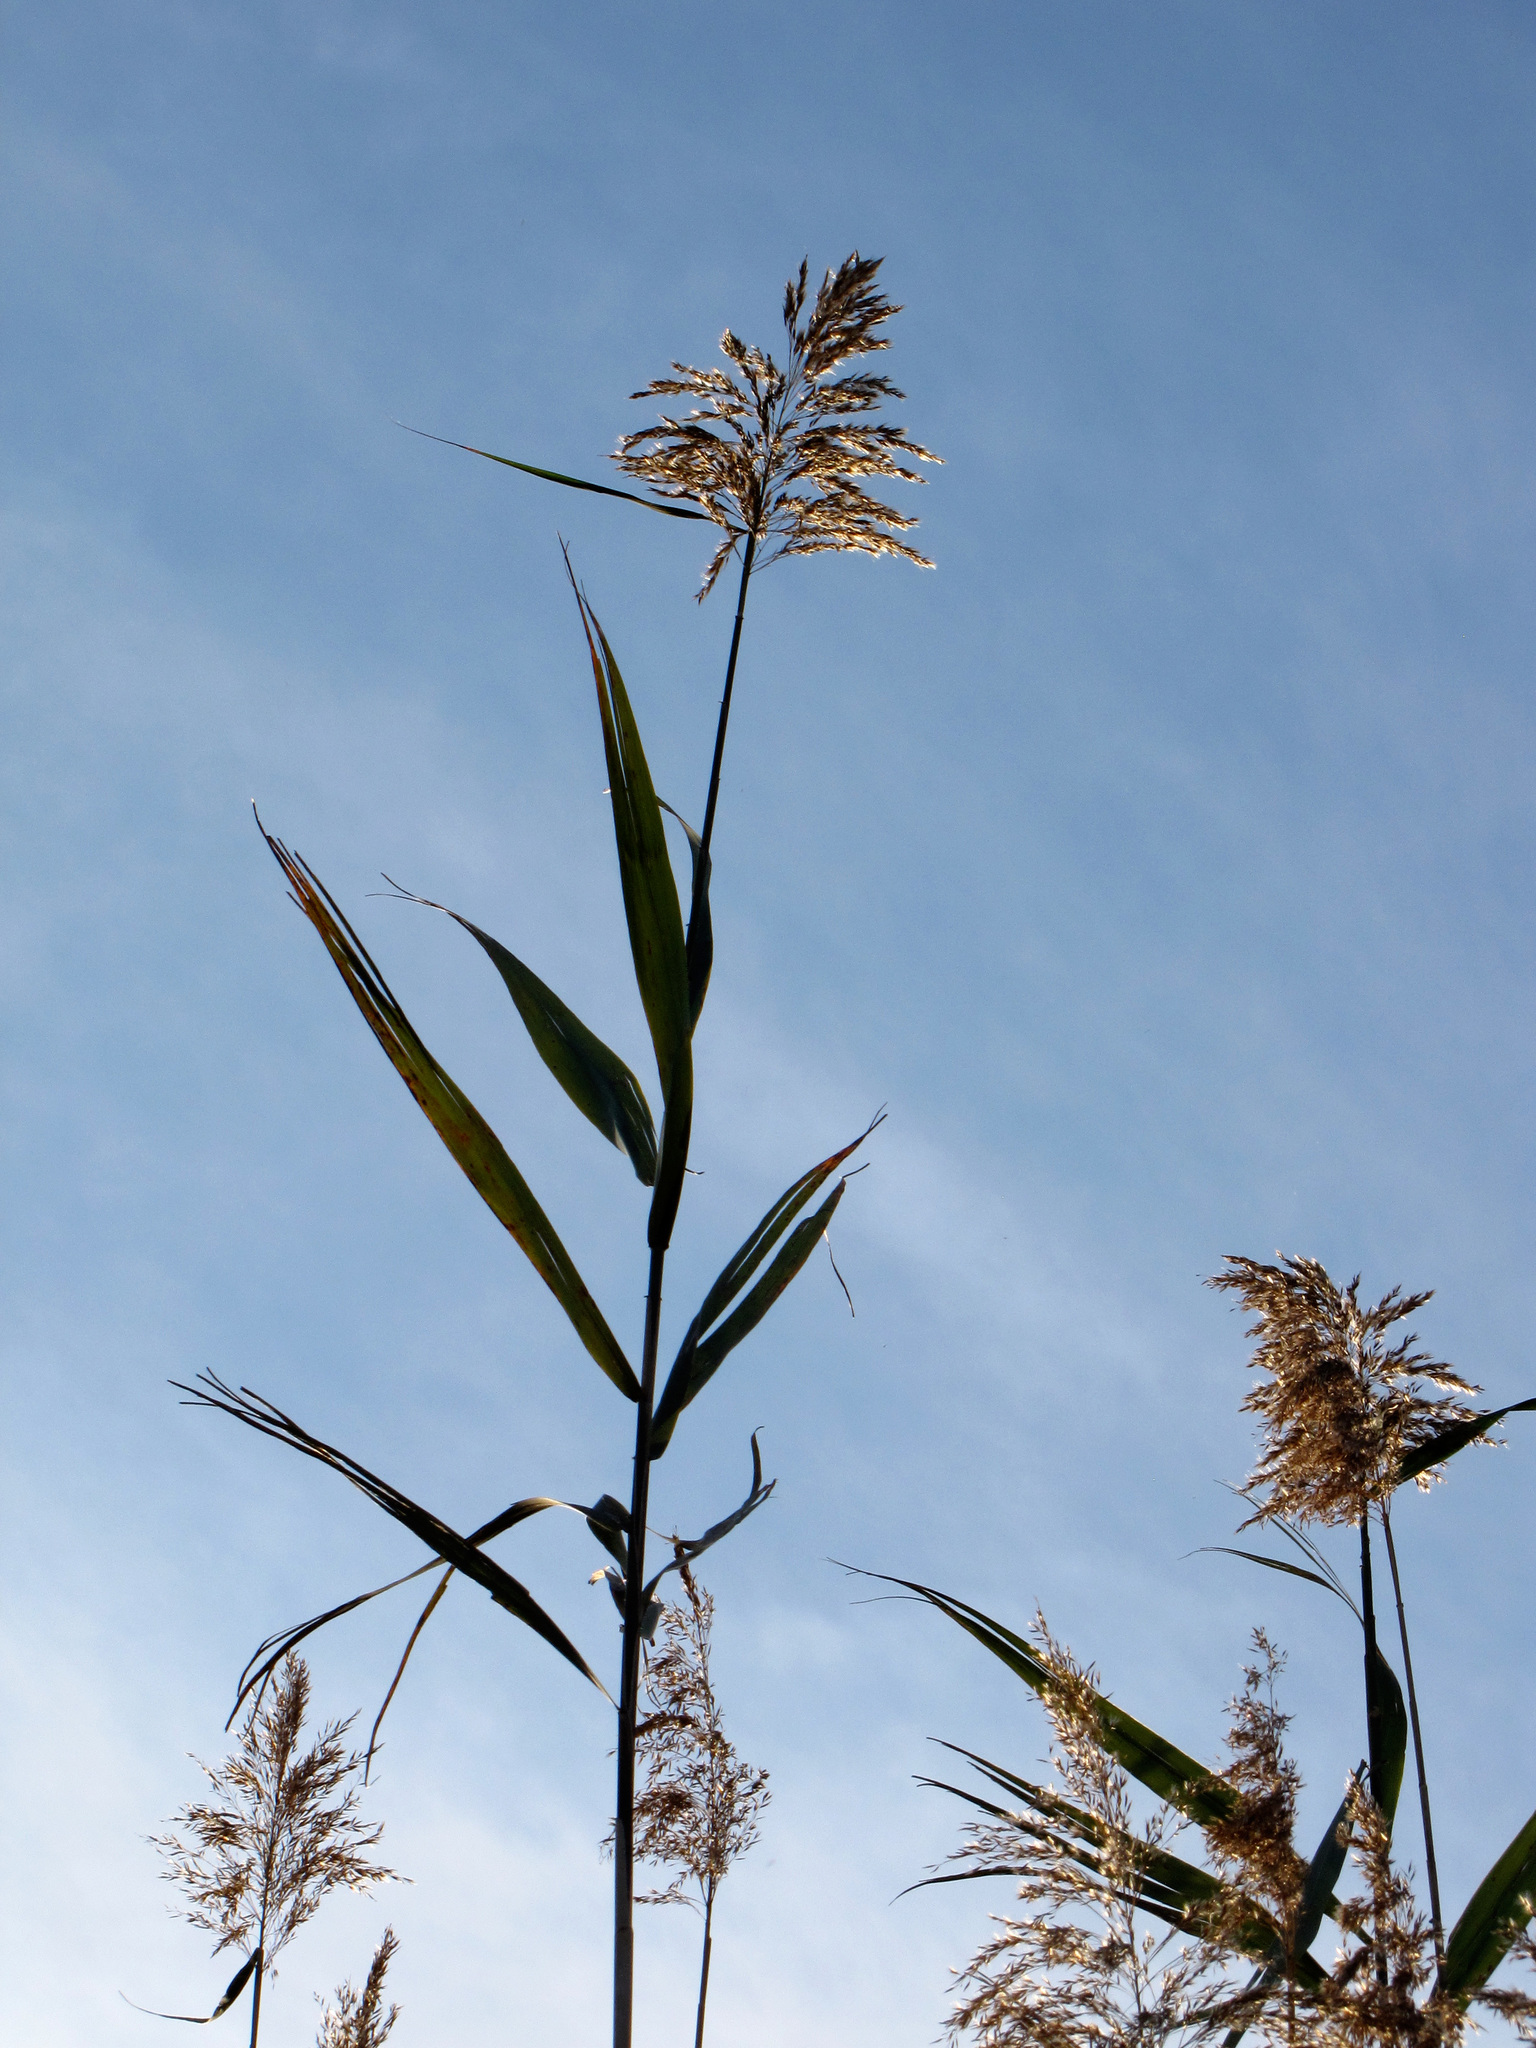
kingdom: Plantae
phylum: Tracheophyta
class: Liliopsida
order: Poales
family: Poaceae
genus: Phragmites
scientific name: Phragmites australis
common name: Common reed
